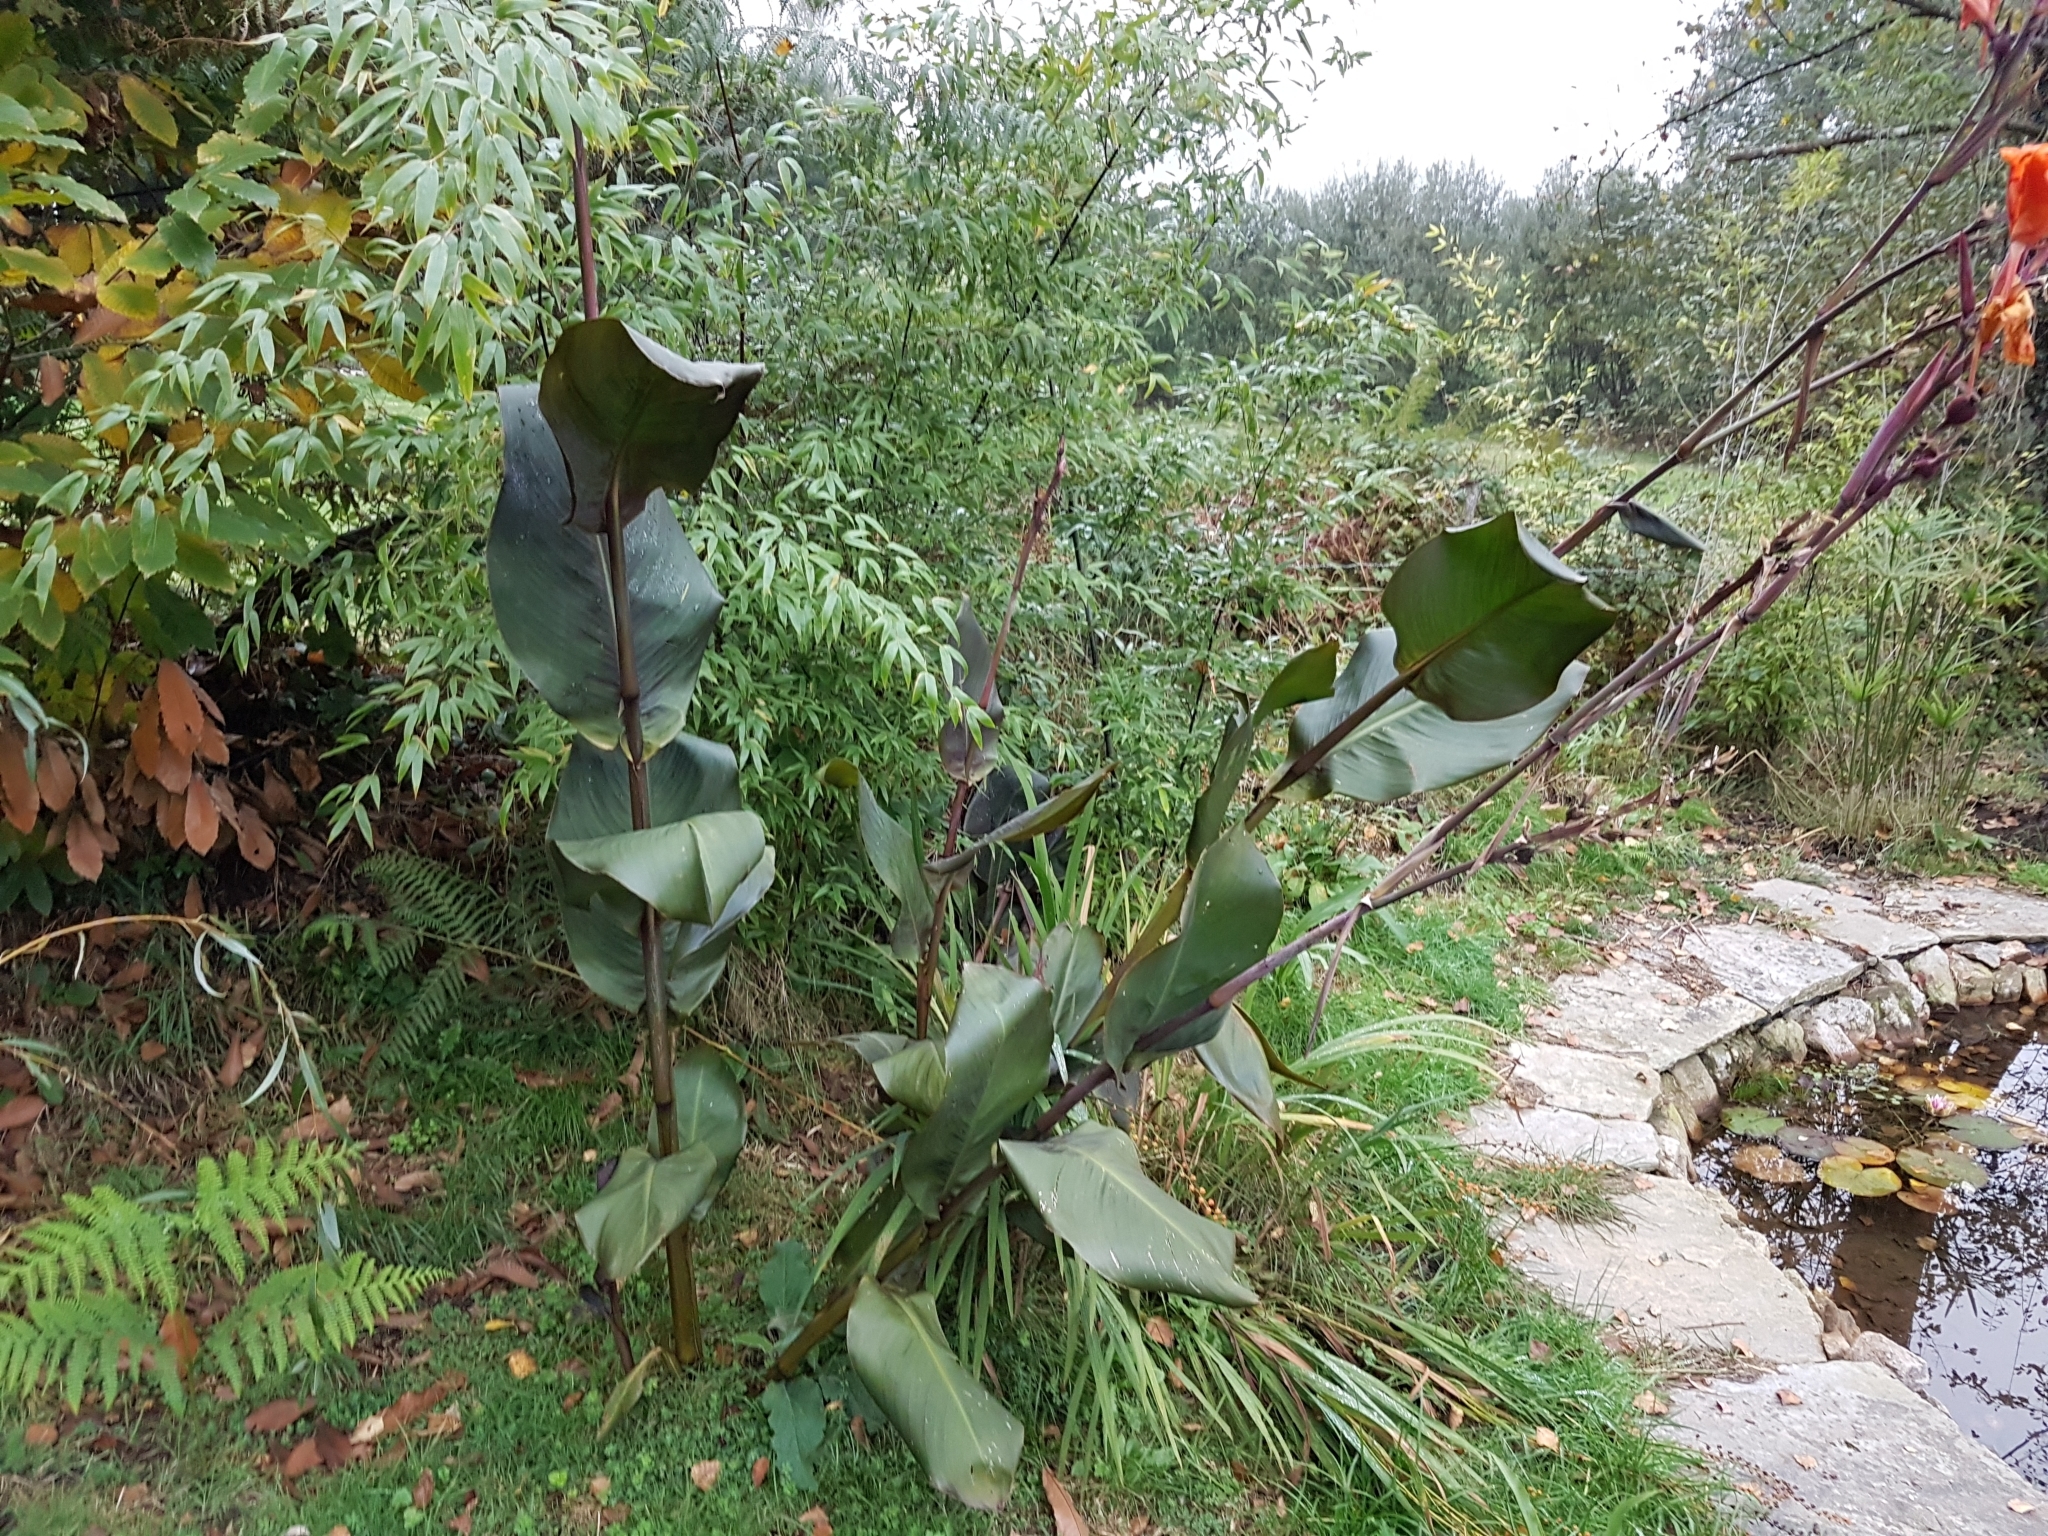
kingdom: Plantae
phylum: Tracheophyta
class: Liliopsida
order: Zingiberales
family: Cannaceae
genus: Canna
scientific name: Canna indica
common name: Indian shot
